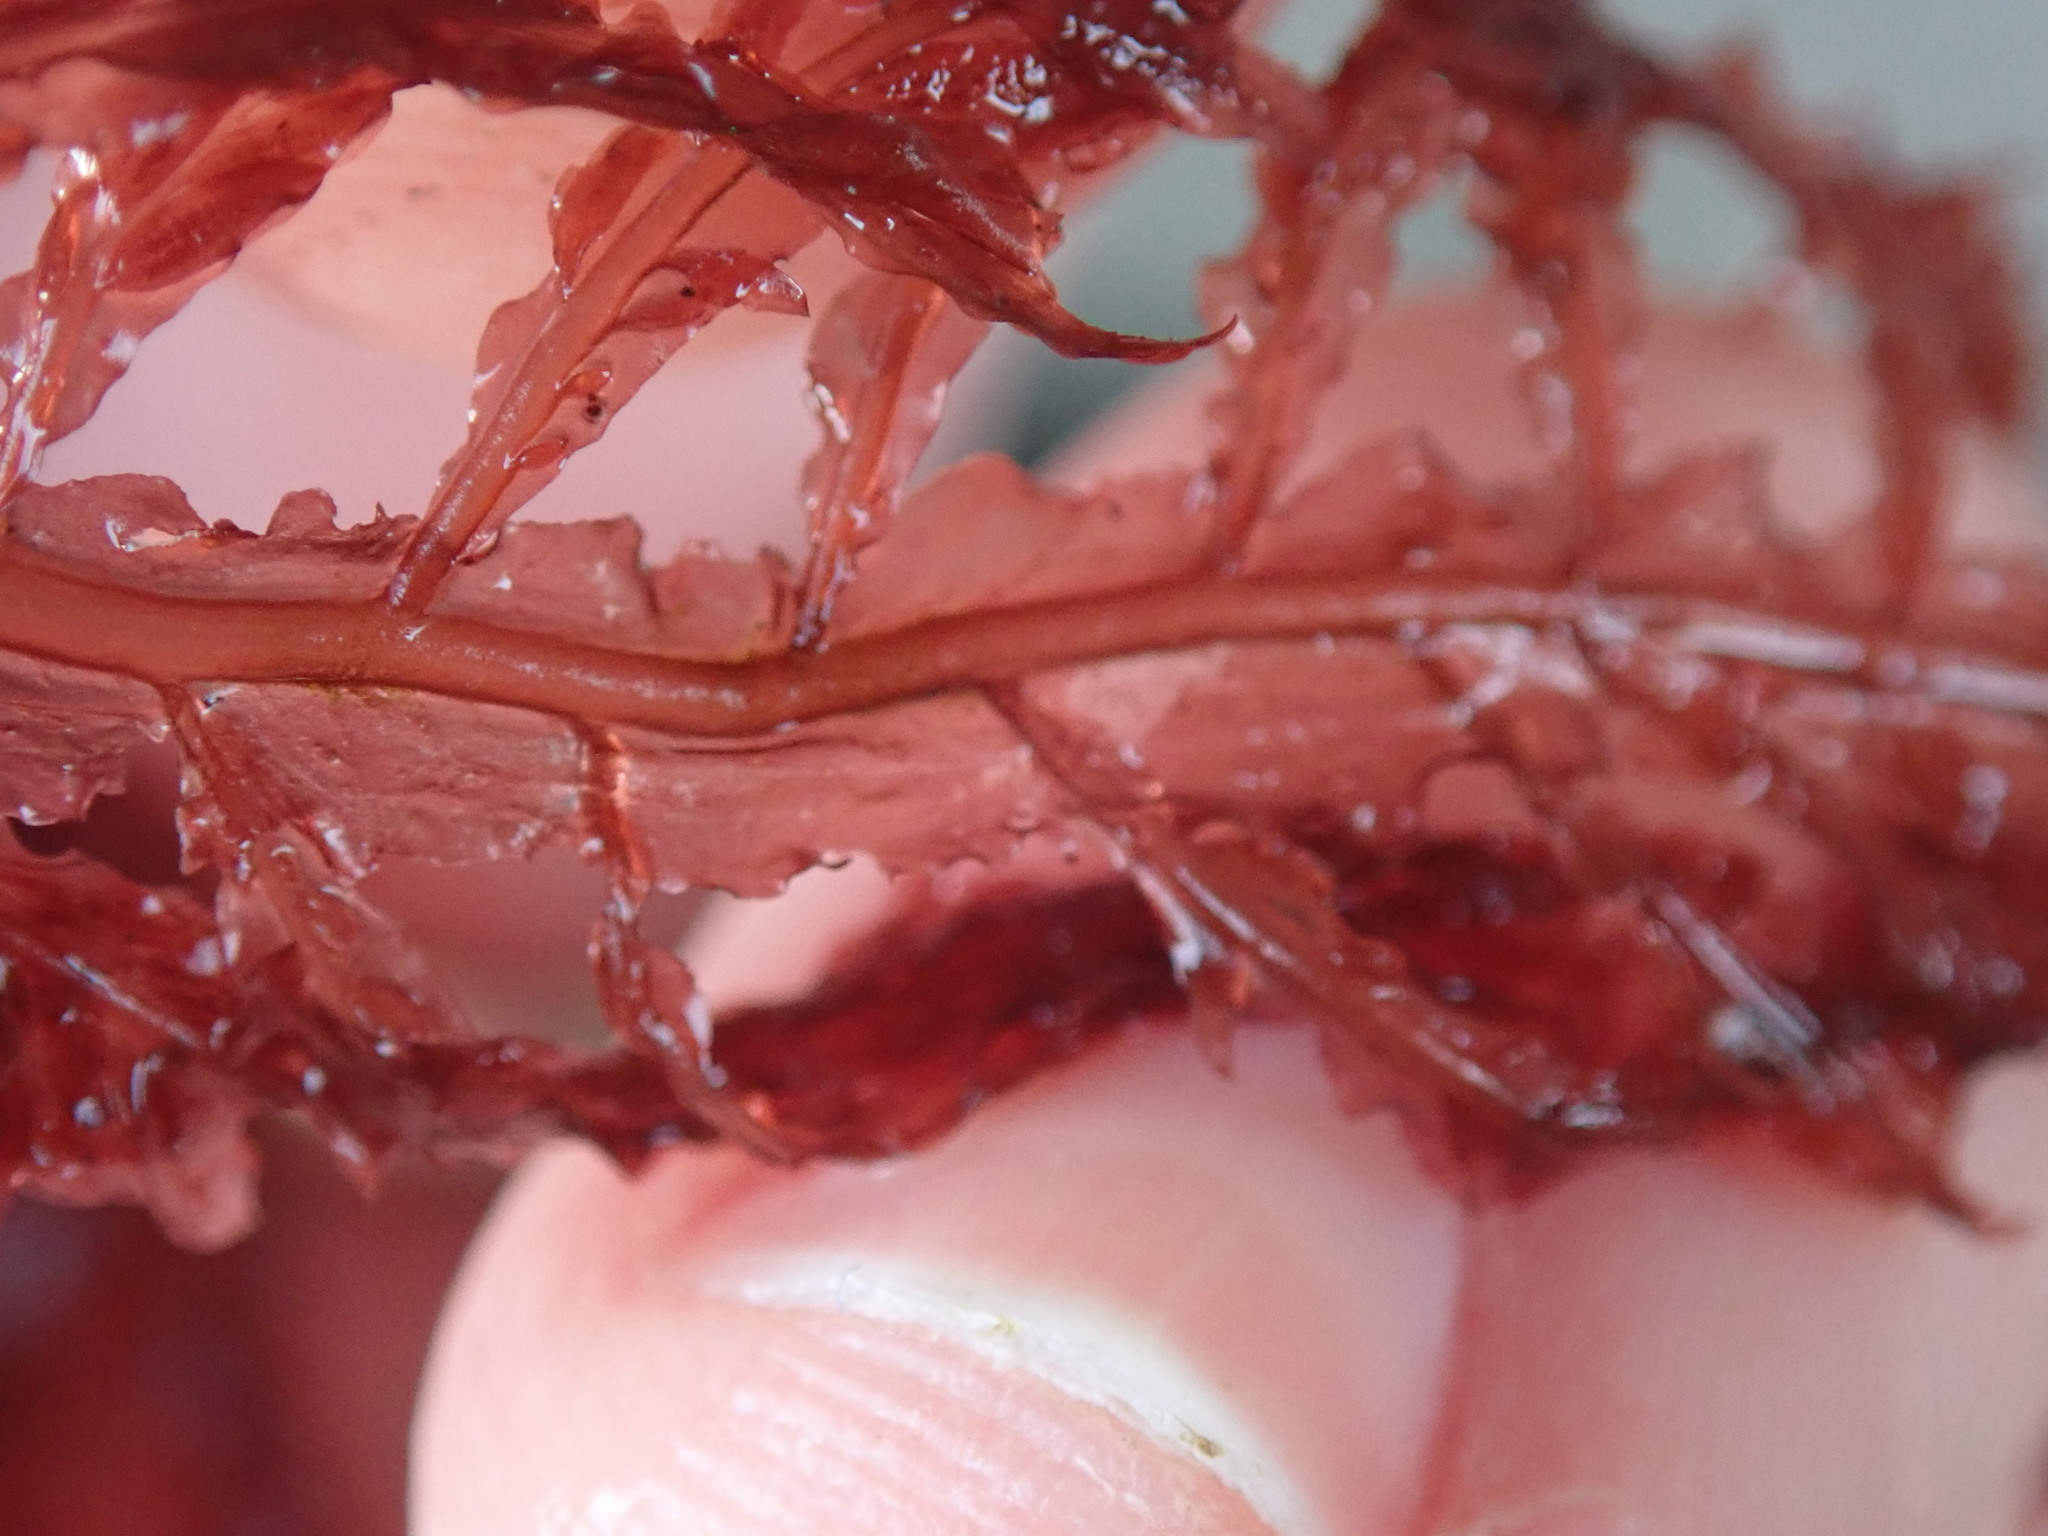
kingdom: Plantae
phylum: Rhodophyta
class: Florideophyceae
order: Ceramiales
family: Delesseriaceae
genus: Cumathamnion
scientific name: Cumathamnion decipiens
